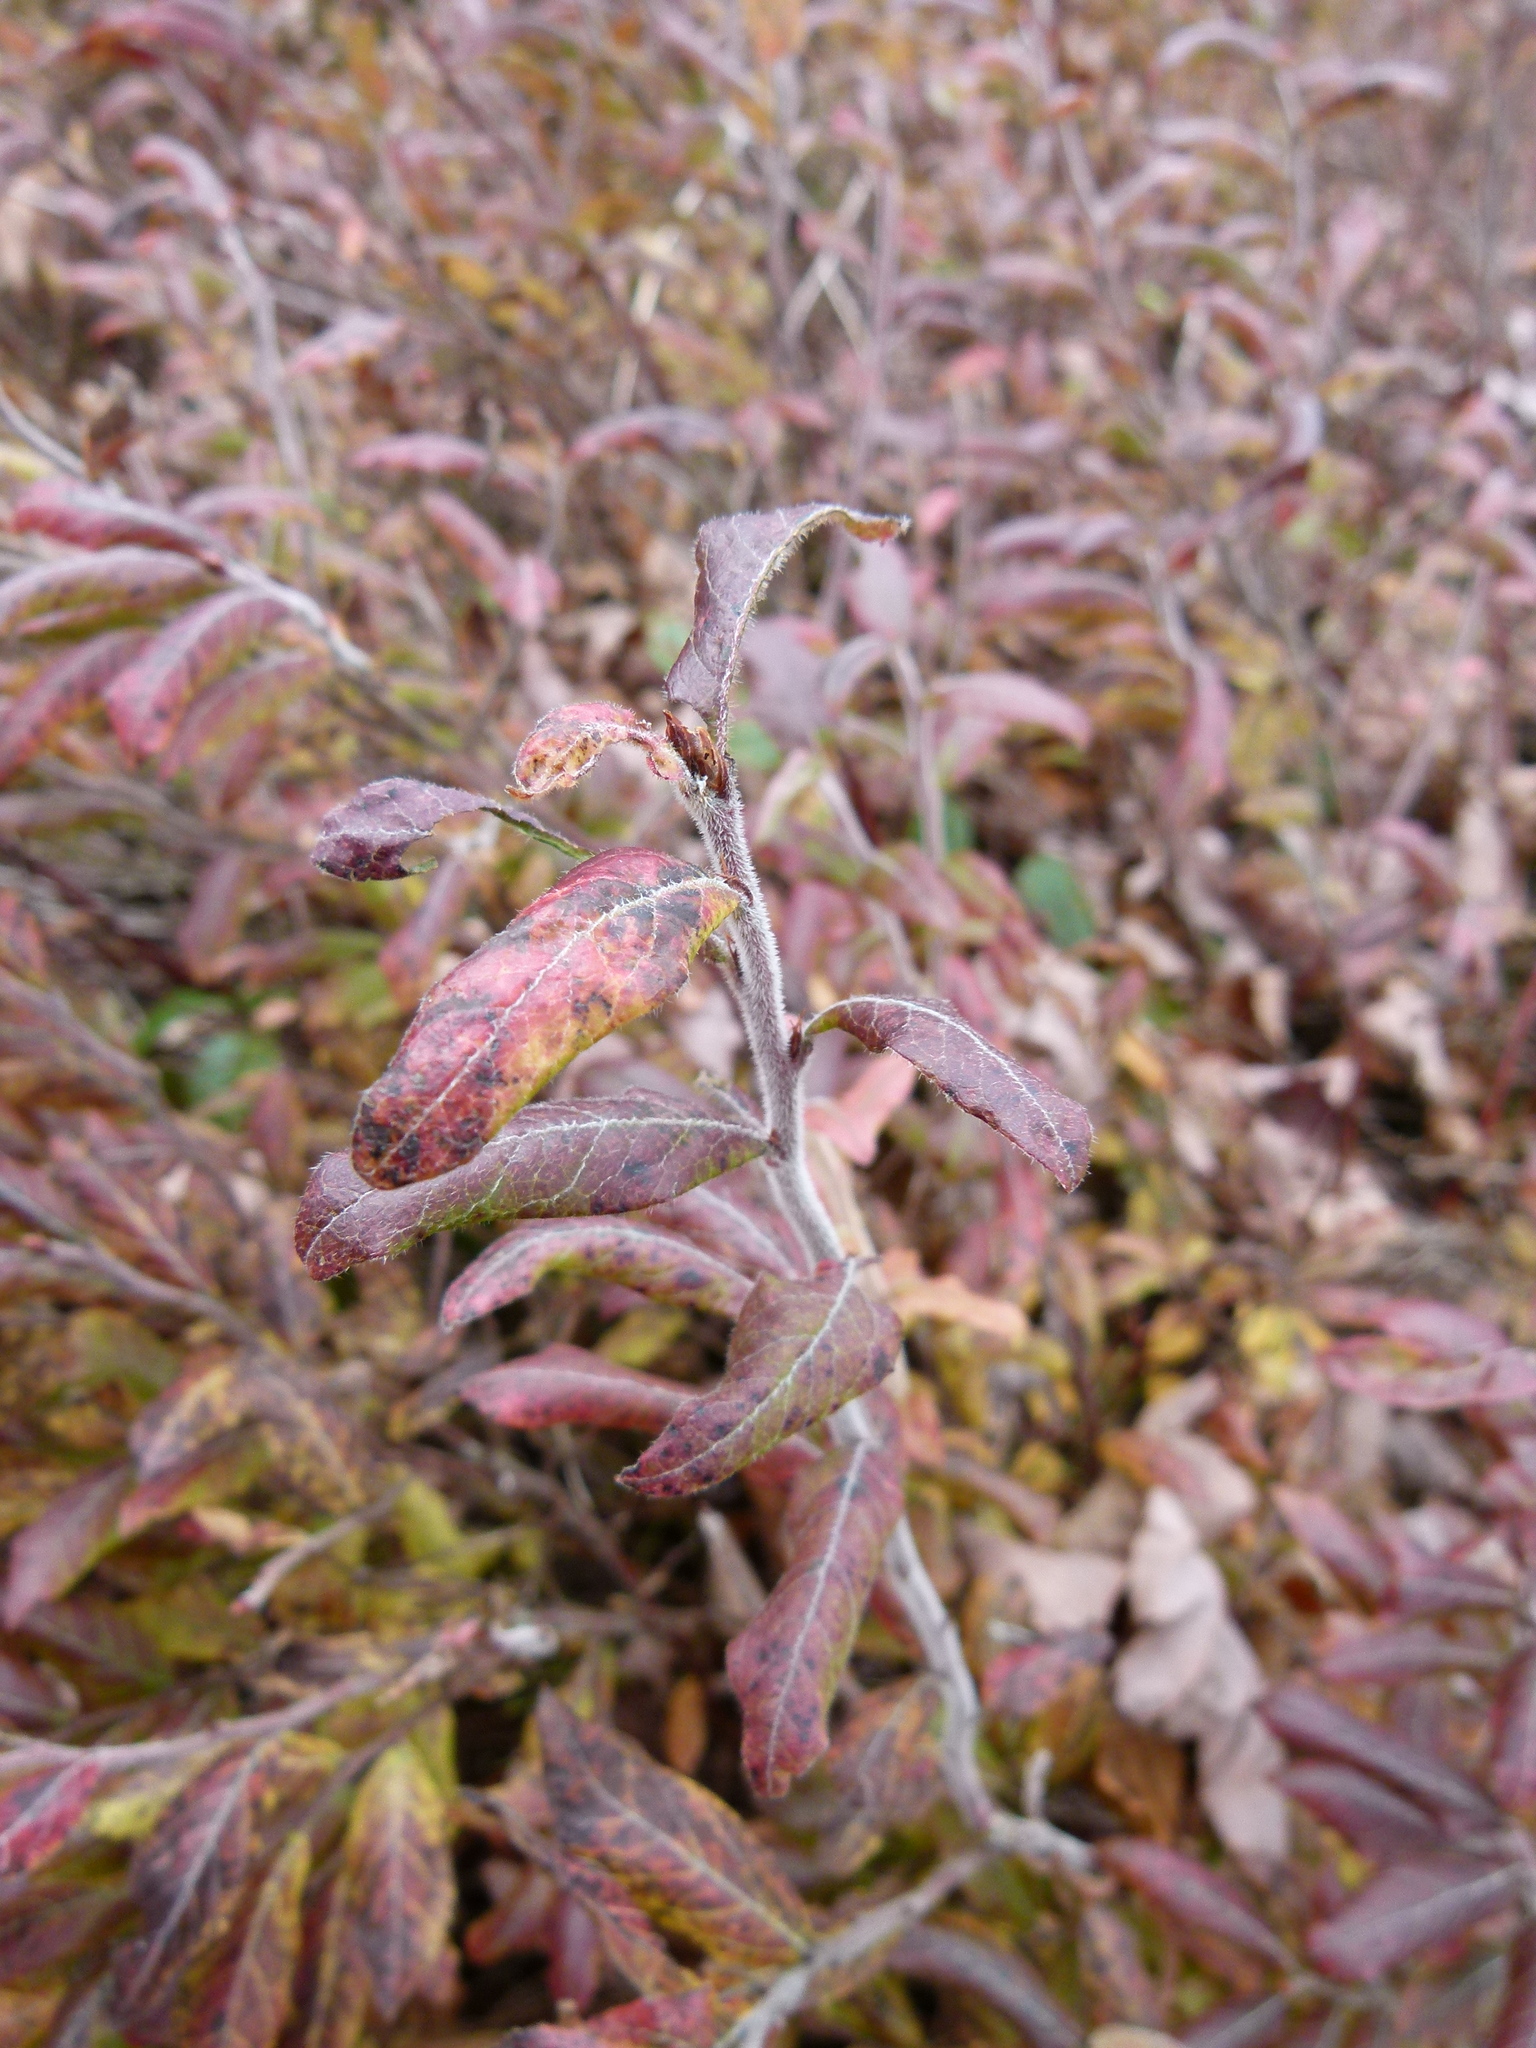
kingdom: Plantae
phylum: Tracheophyta
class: Magnoliopsida
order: Ericales
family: Ericaceae
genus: Vaccinium
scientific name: Vaccinium myrtilloides
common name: Canada blueberry
